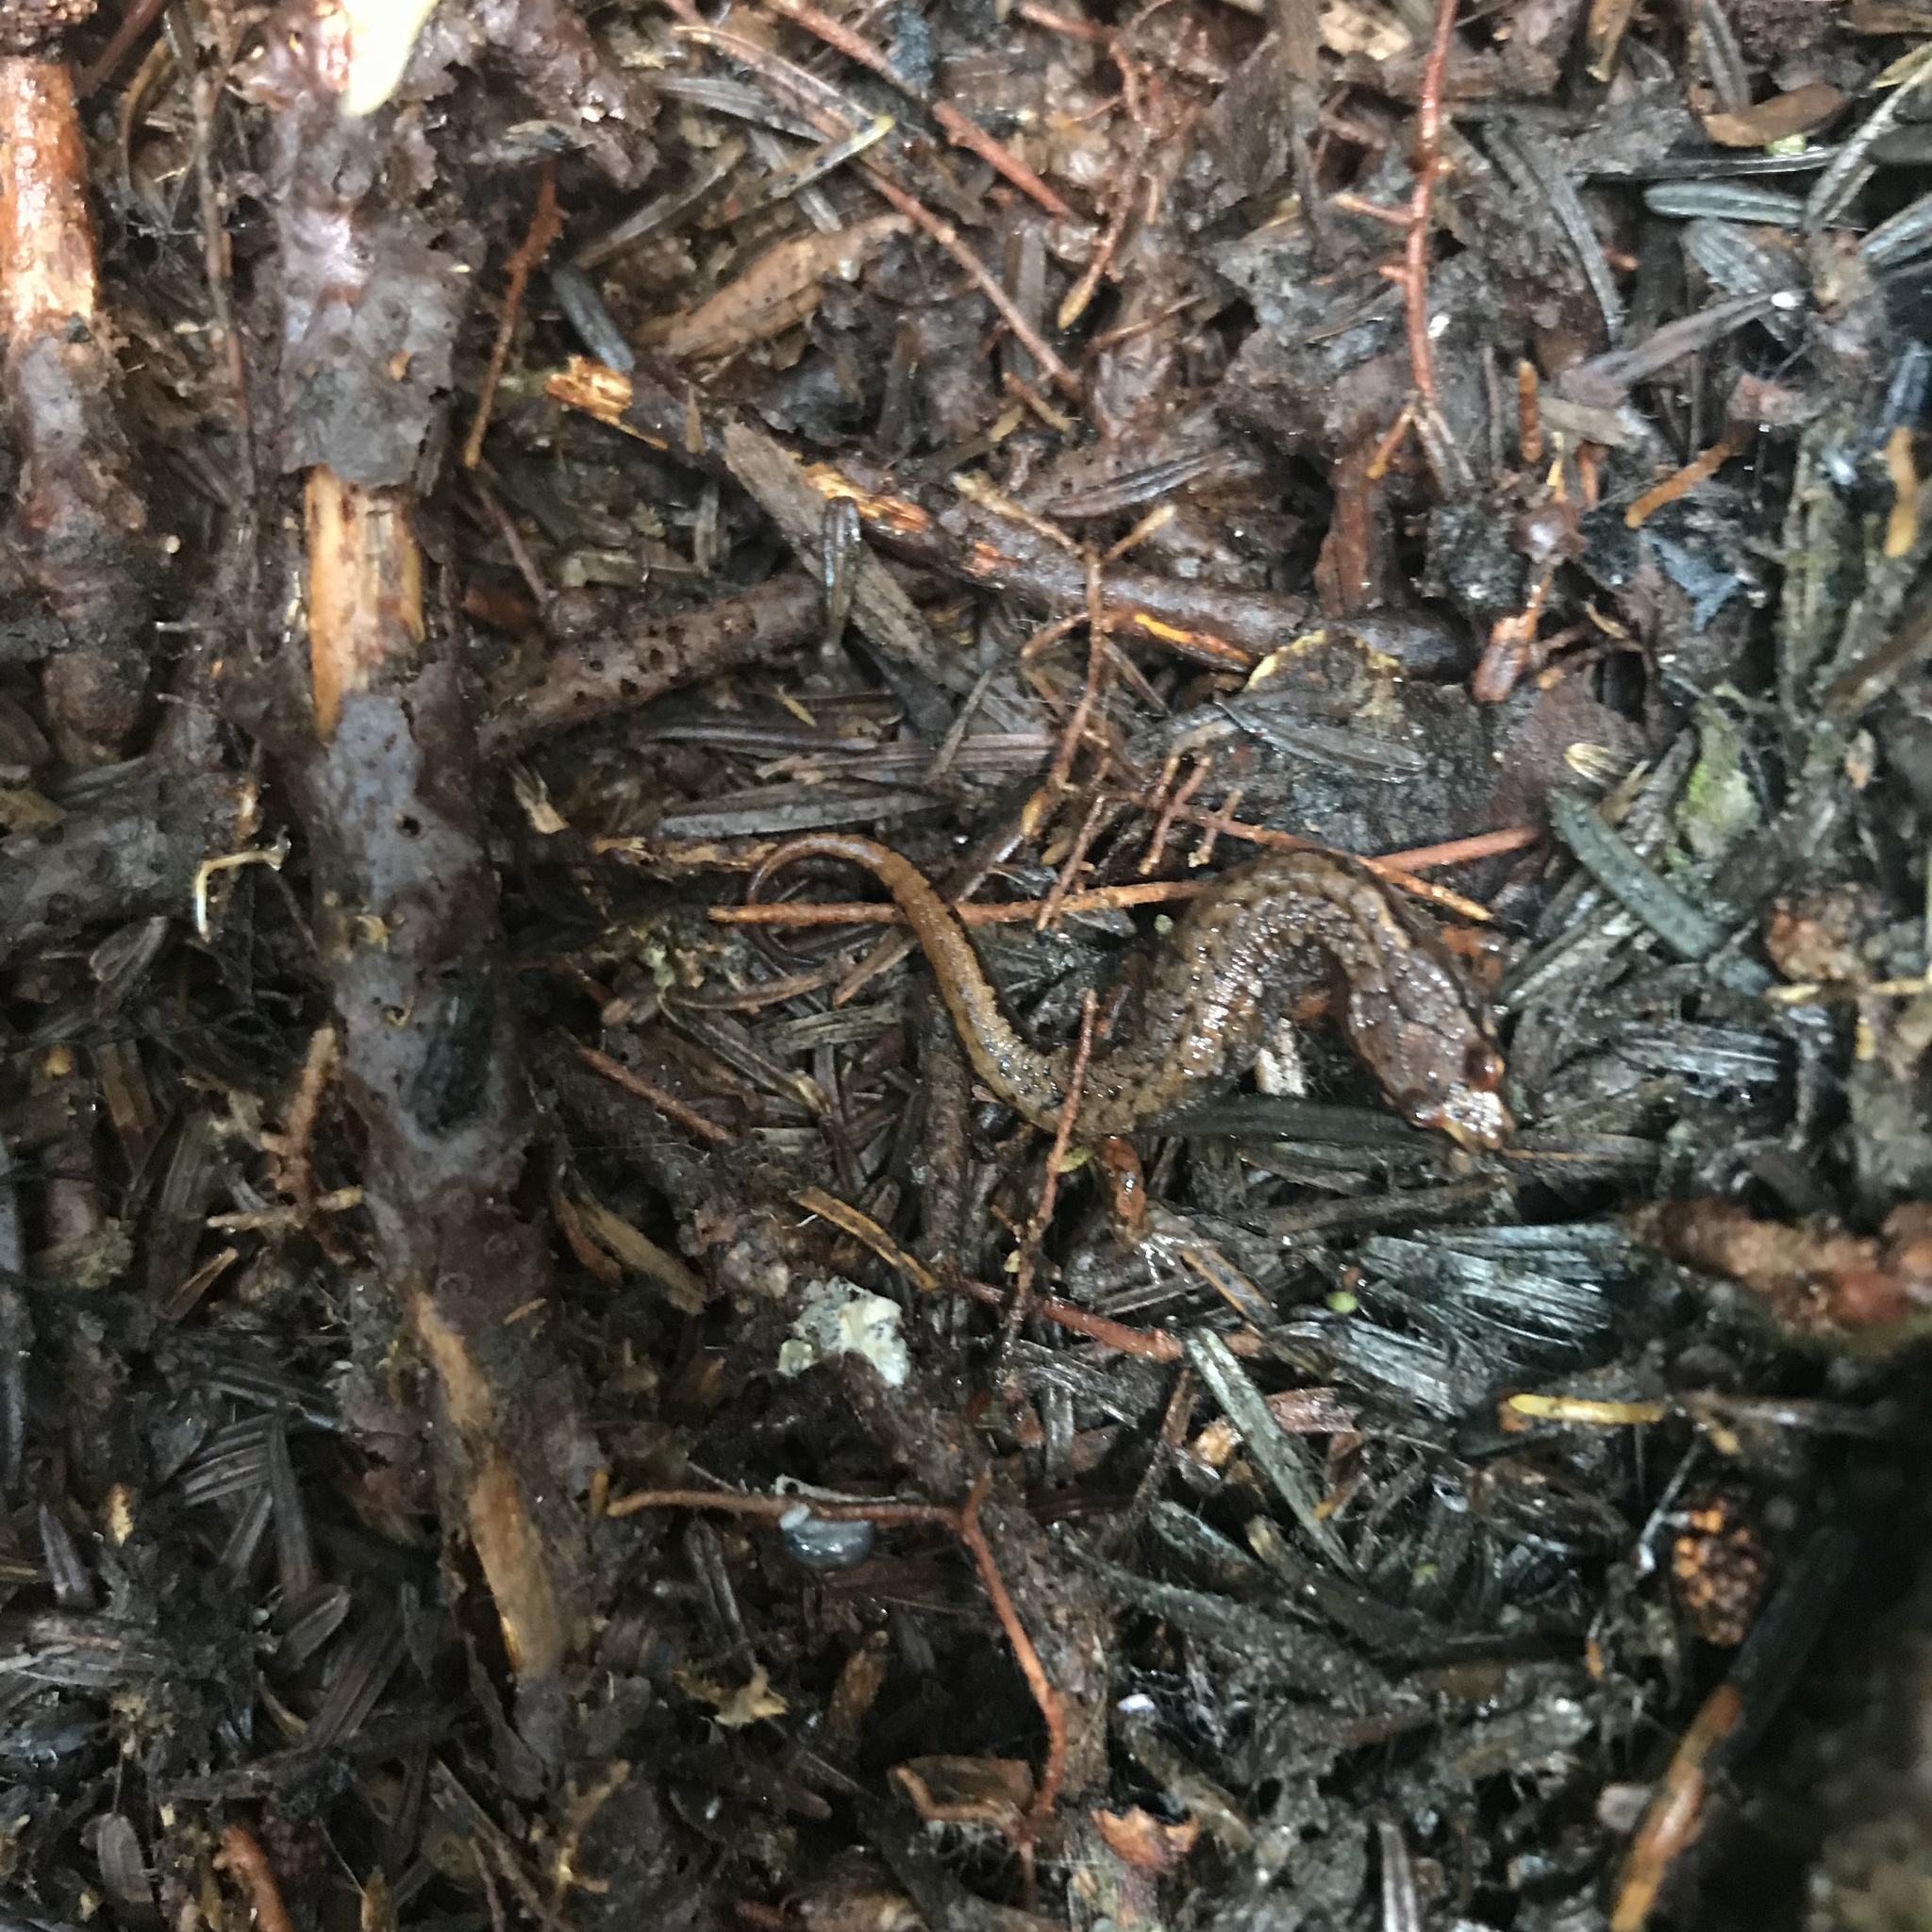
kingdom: Animalia
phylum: Chordata
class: Amphibia
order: Caudata
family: Plethodontidae
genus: Desmognathus
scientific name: Desmognathus organi
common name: Northern pygmy salamander
